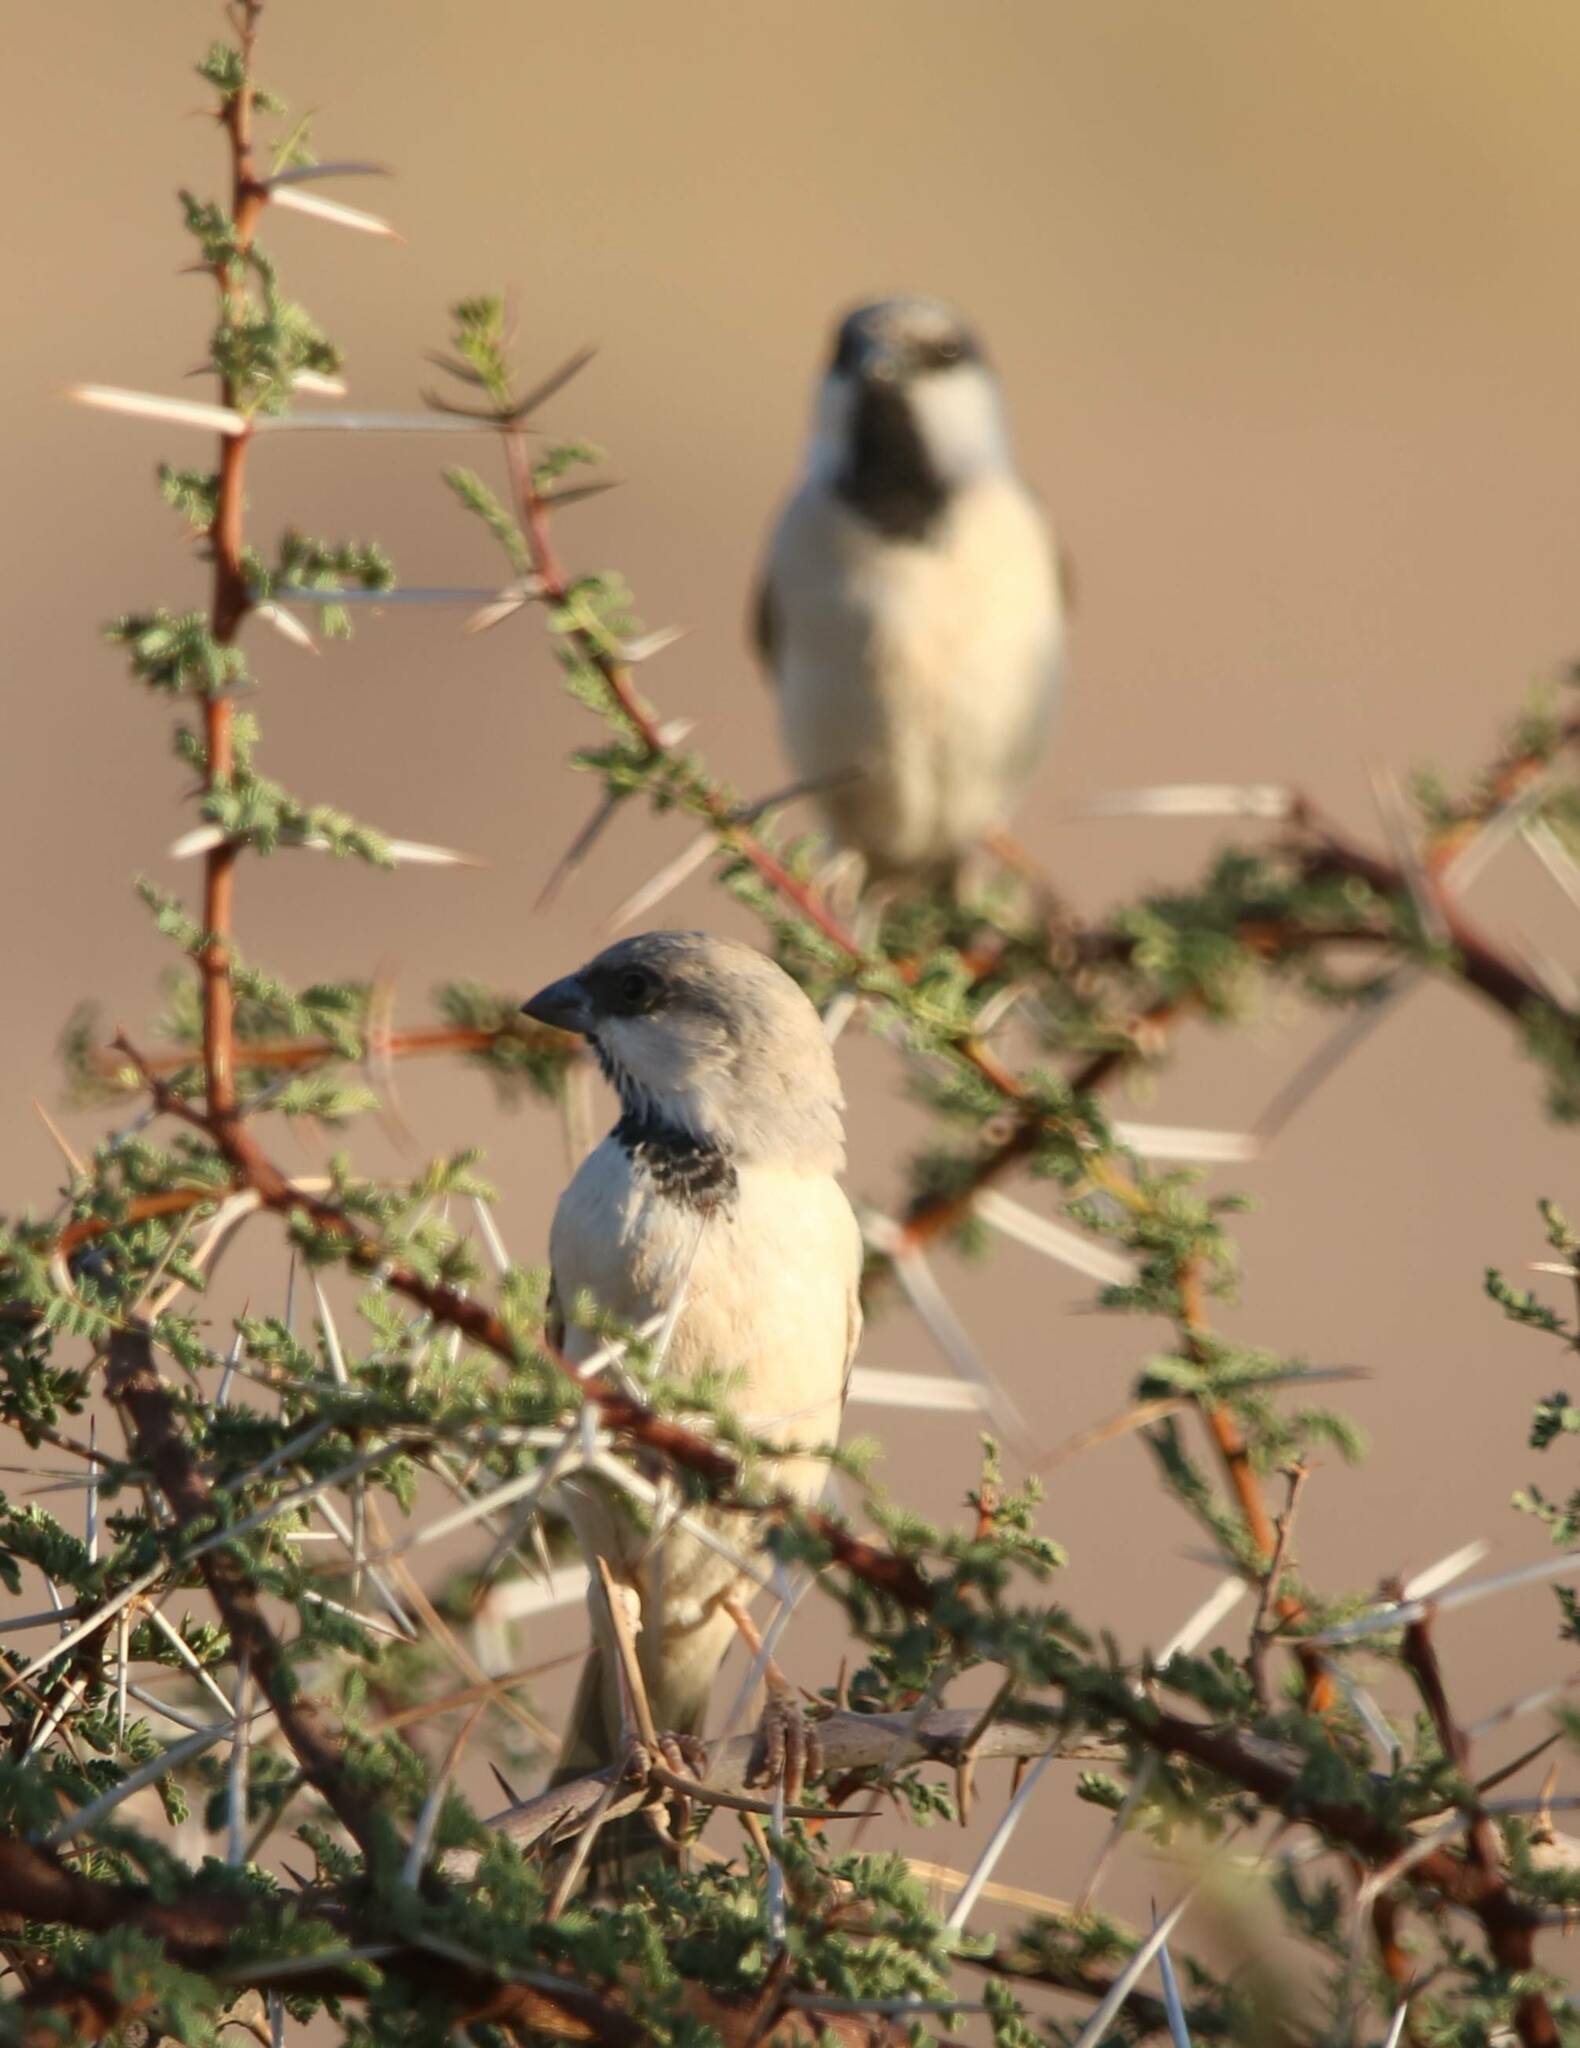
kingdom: Animalia
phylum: Chordata
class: Aves
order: Passeriformes
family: Passeridae
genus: Passer
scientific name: Passer simplex
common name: Desert sparrow
